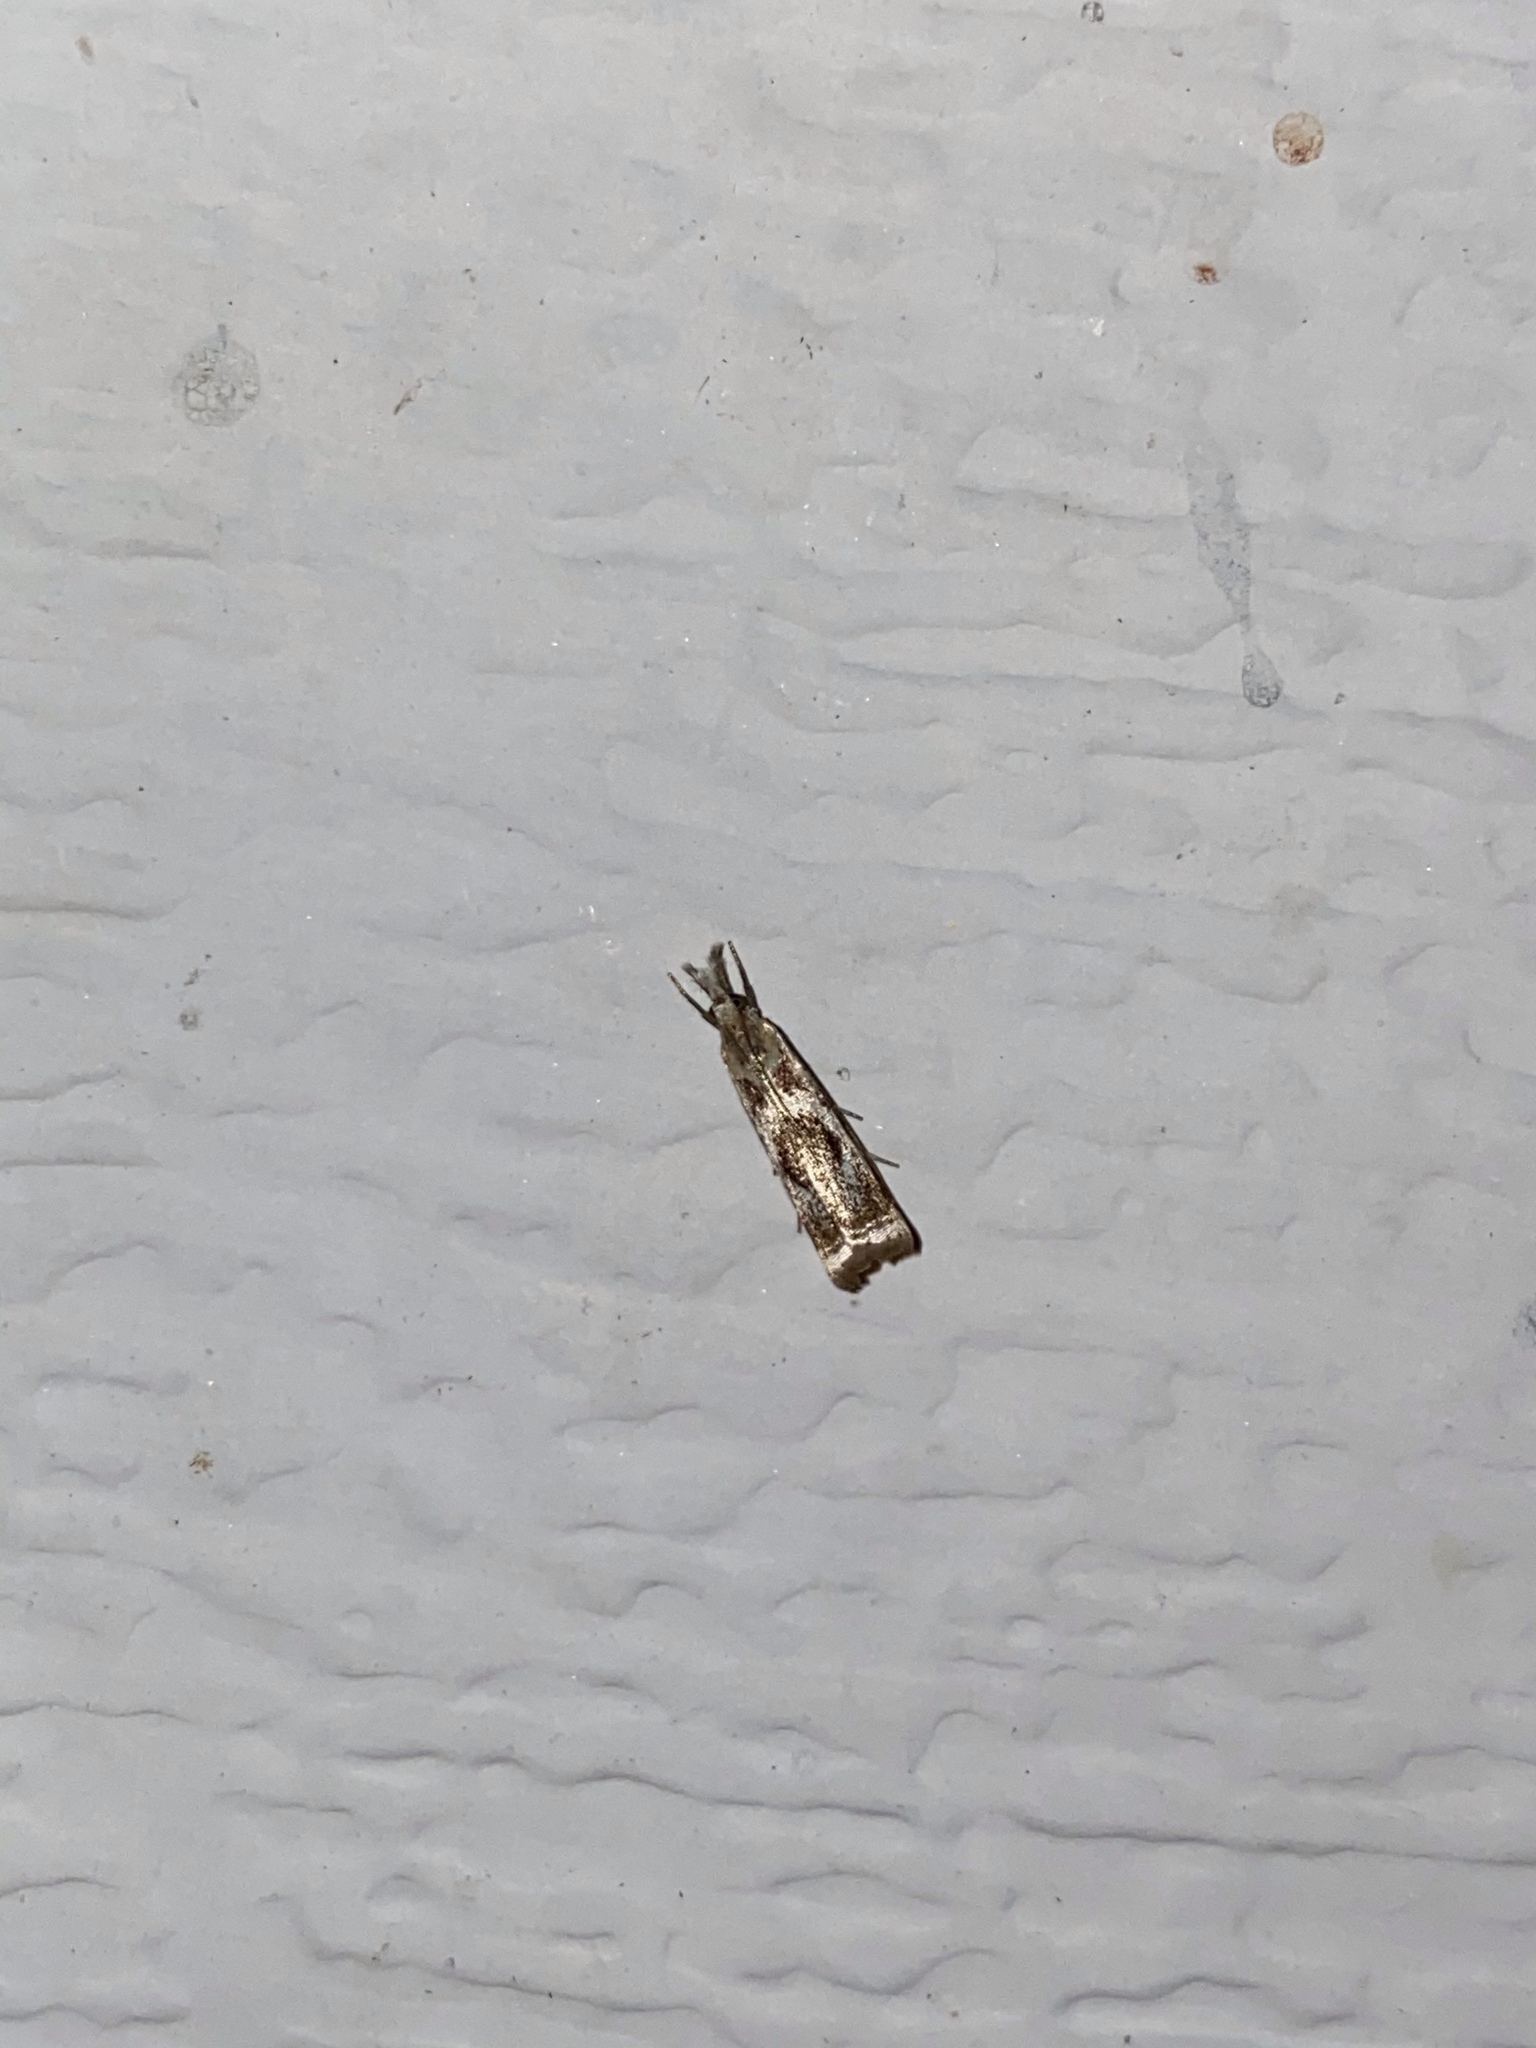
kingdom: Animalia
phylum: Arthropoda
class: Insecta
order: Lepidoptera
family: Crambidae
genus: Microcrambus
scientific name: Microcrambus elegans
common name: Elegant grass-veneer
